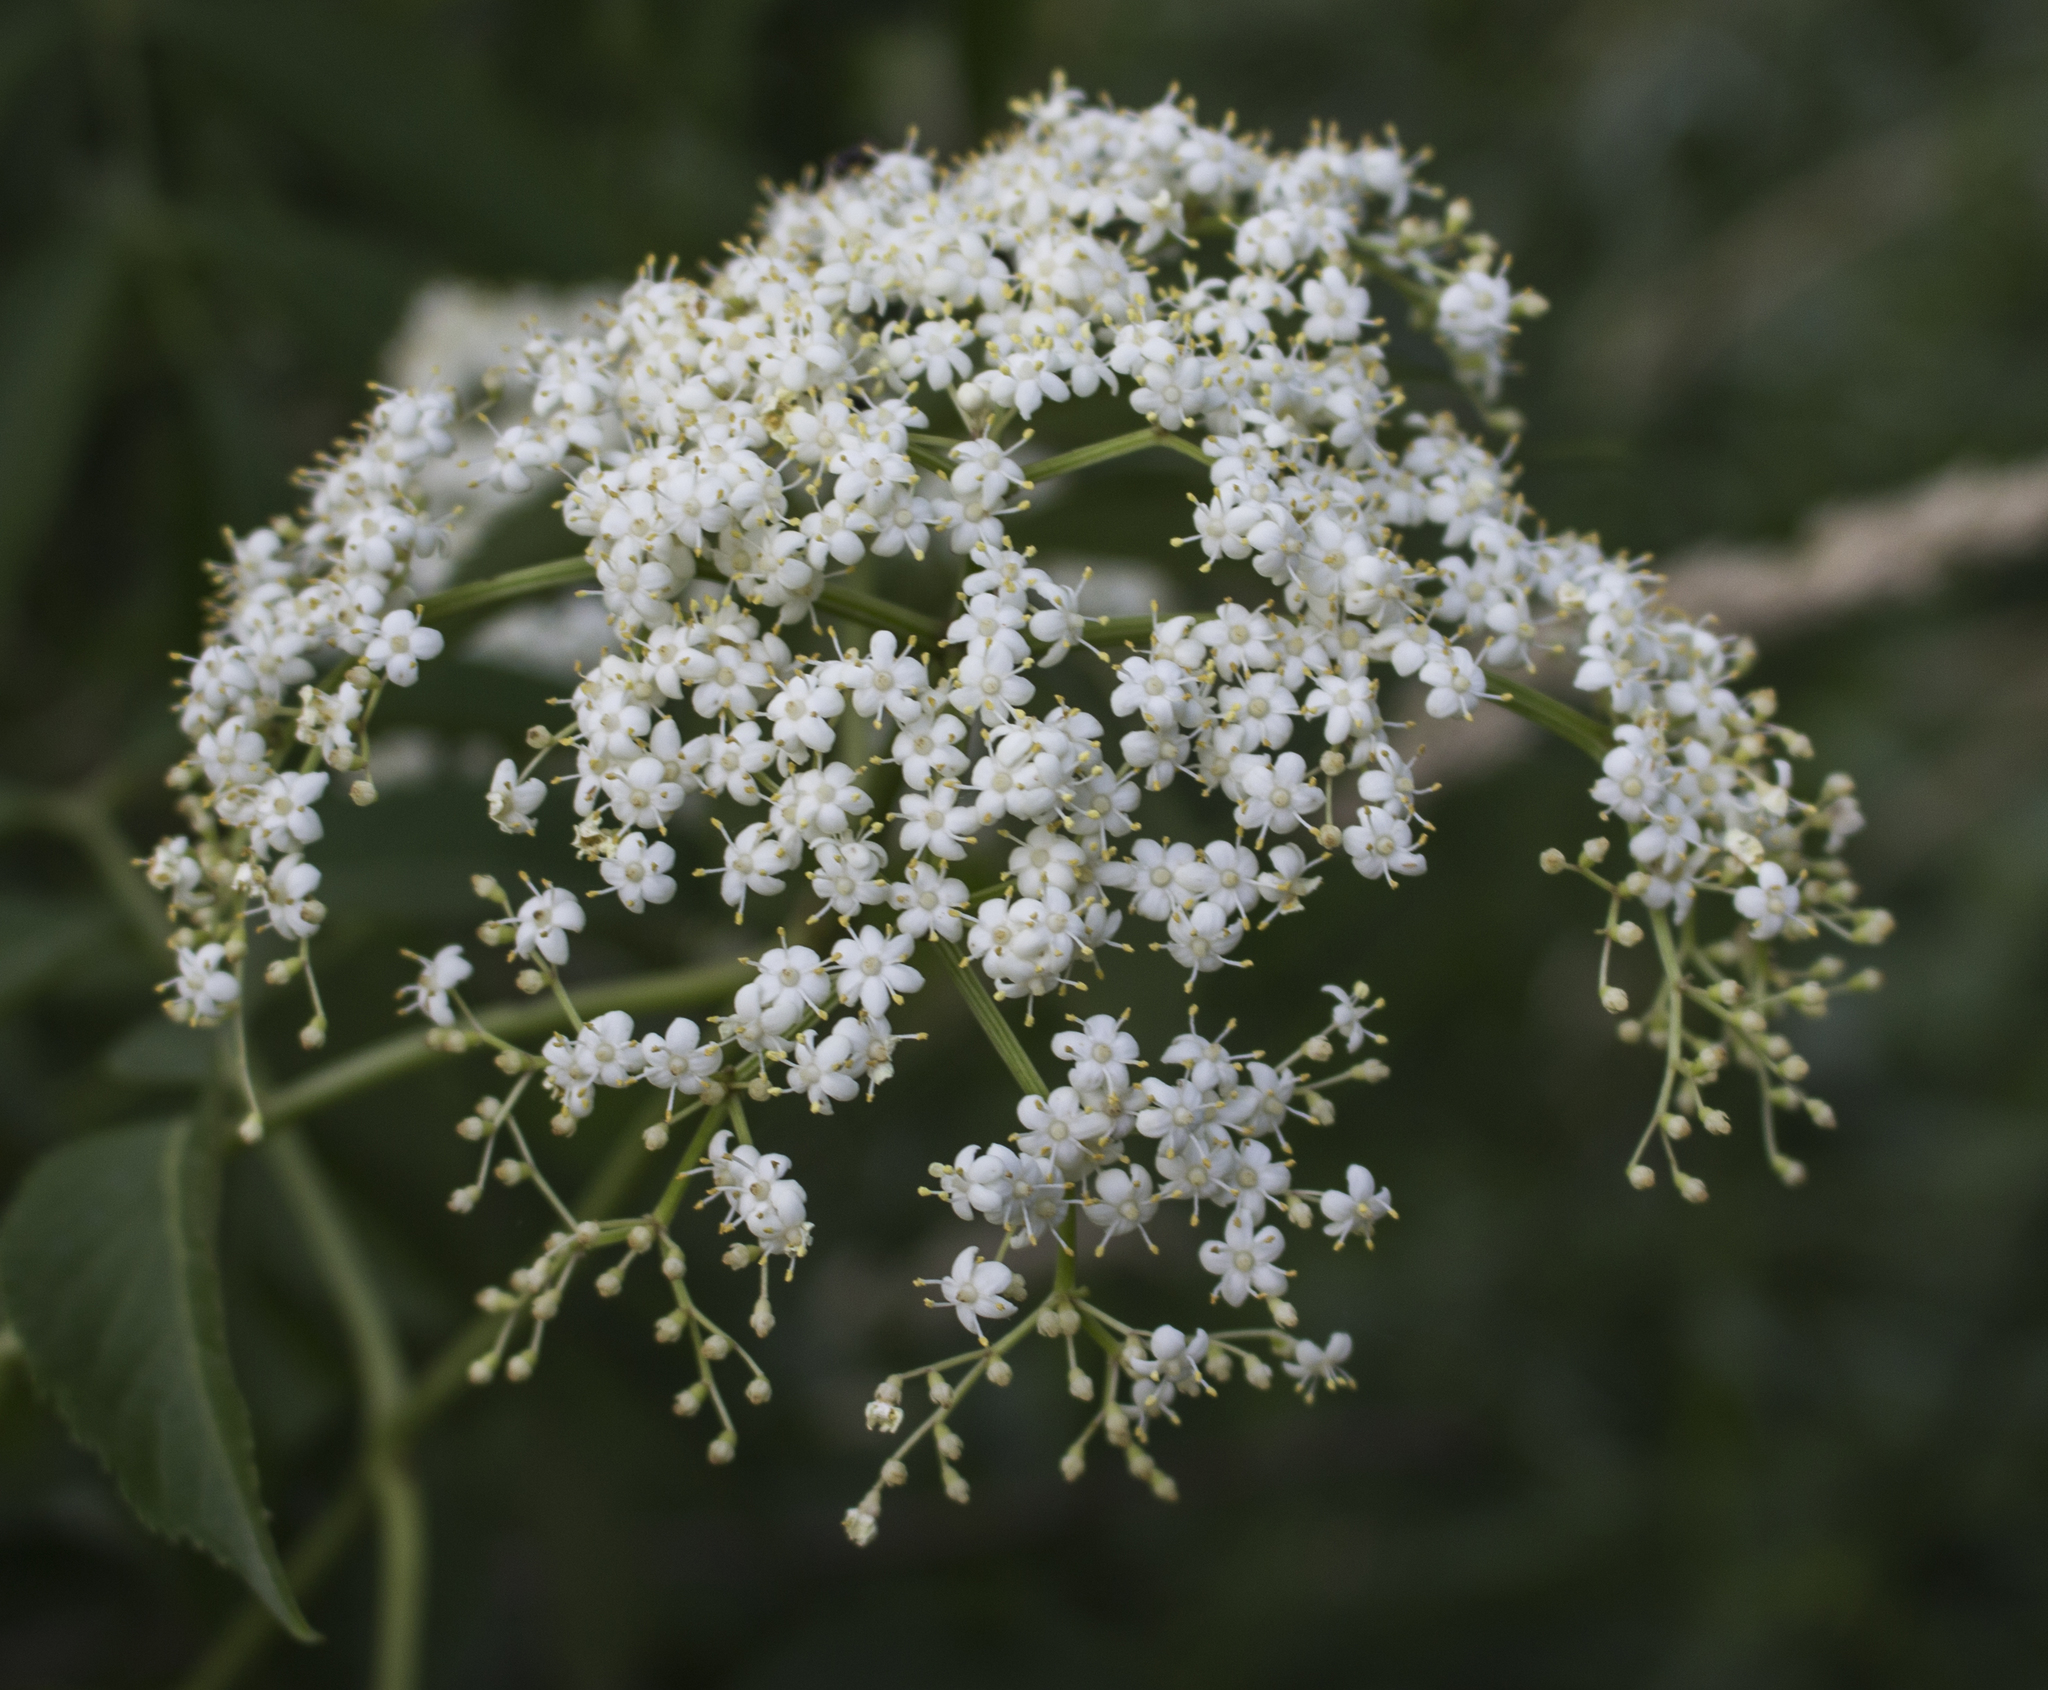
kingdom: Plantae
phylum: Tracheophyta
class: Magnoliopsida
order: Dipsacales
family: Viburnaceae
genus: Sambucus
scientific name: Sambucus canadensis
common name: American elder
